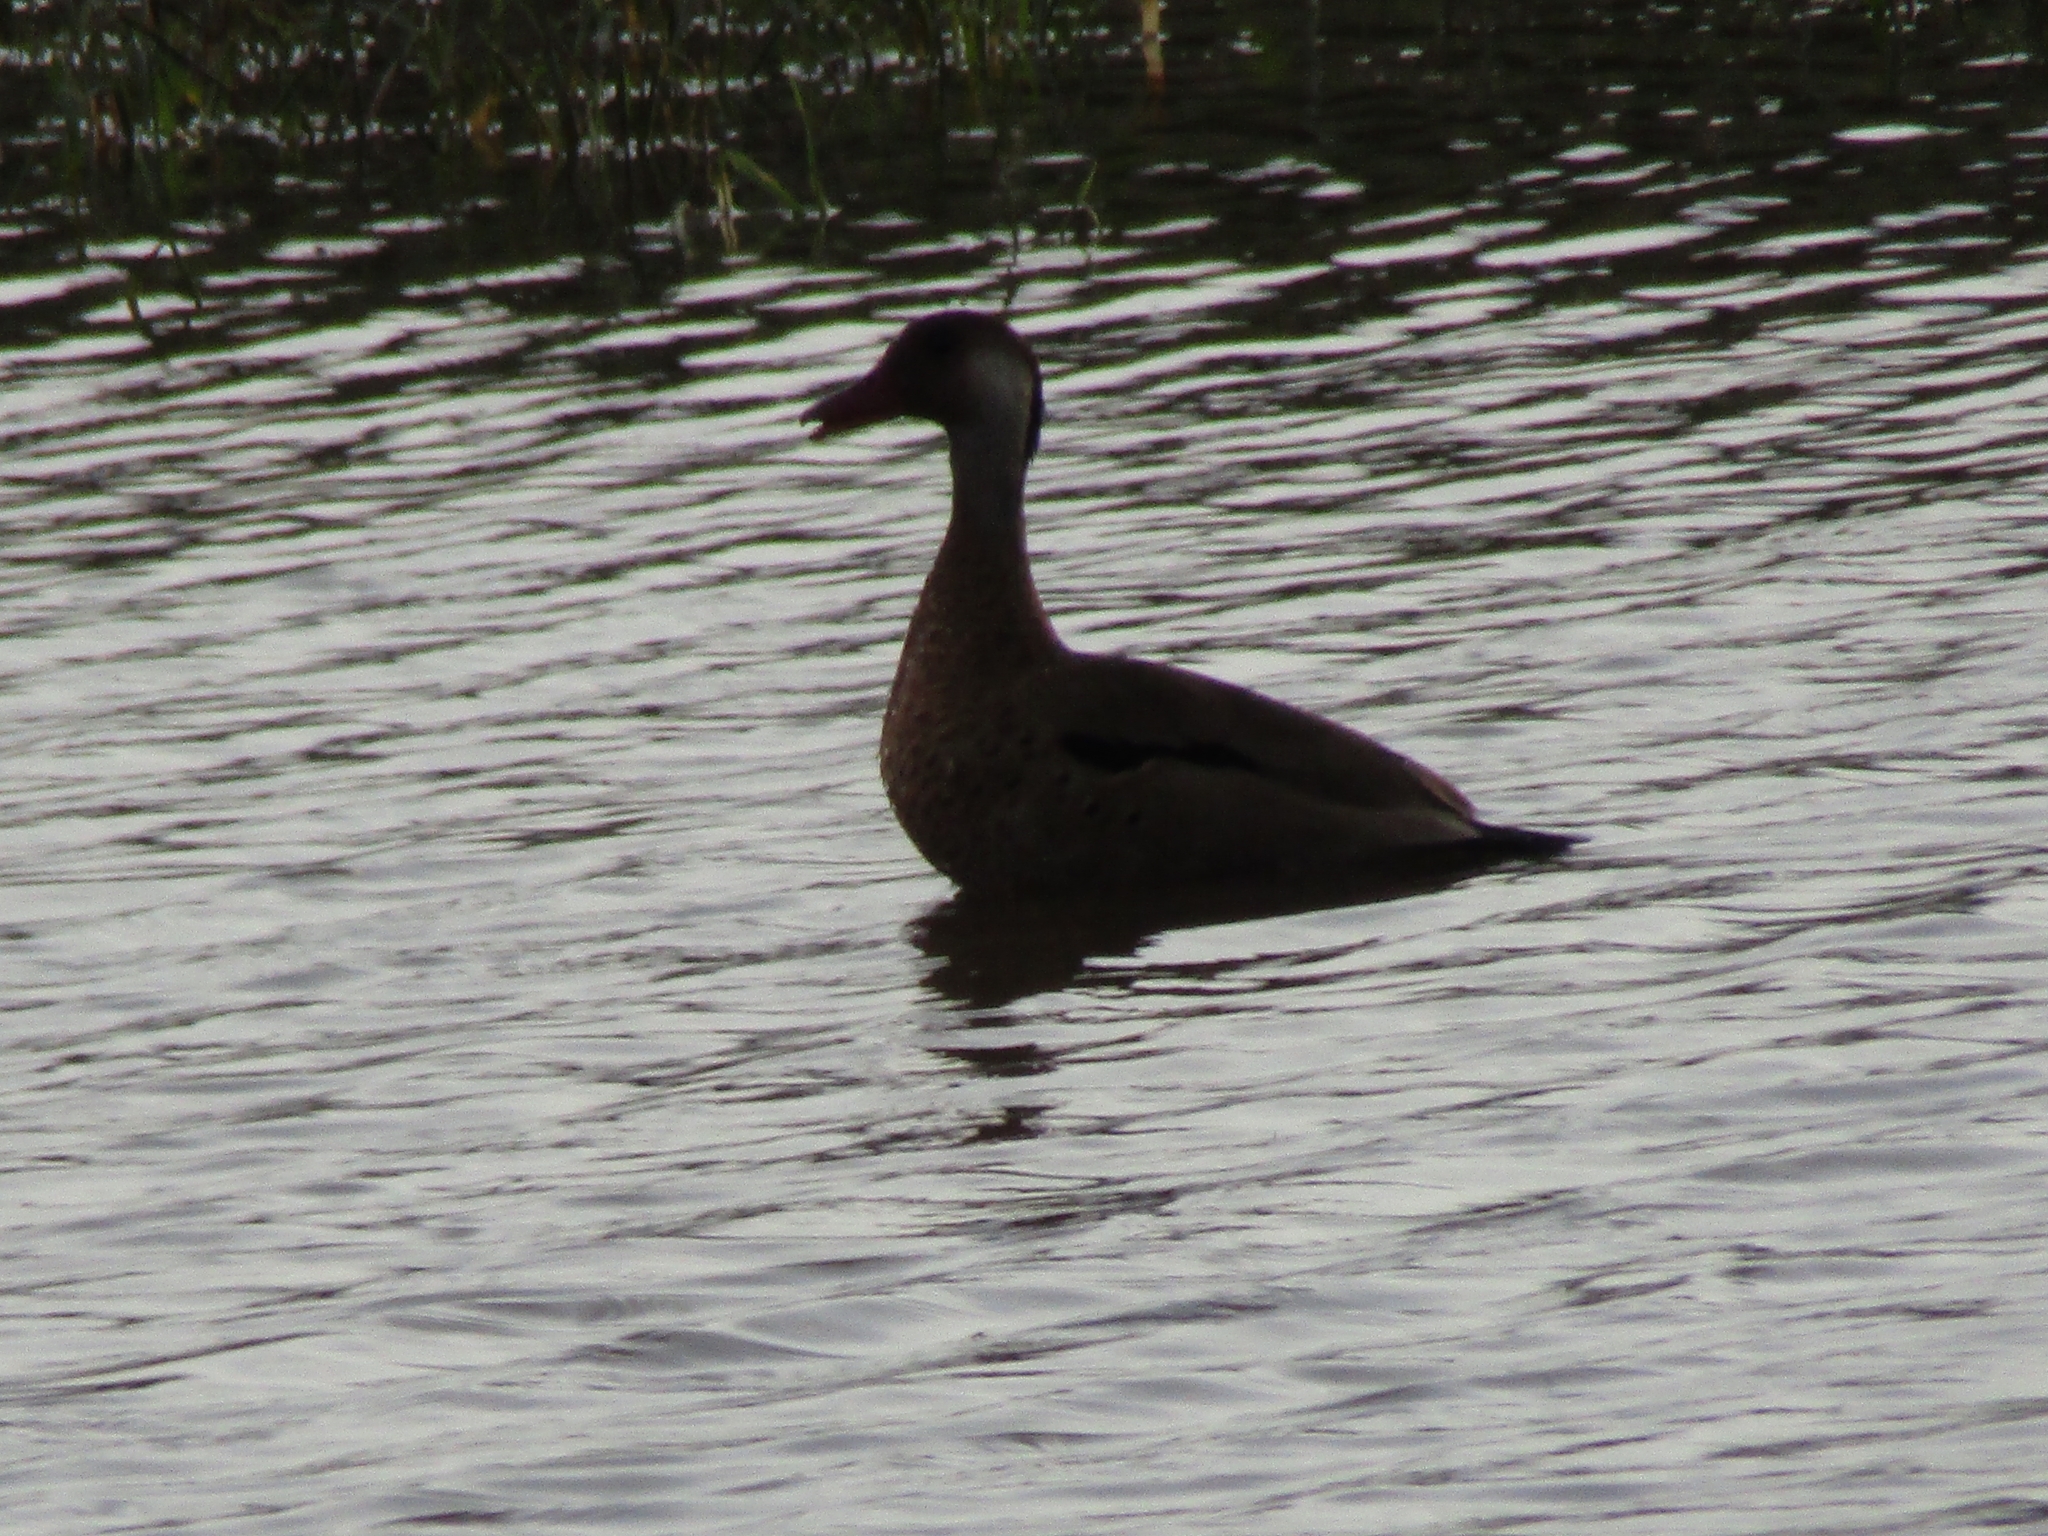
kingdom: Animalia
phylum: Chordata
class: Aves
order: Anseriformes
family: Anatidae
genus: Amazonetta
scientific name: Amazonetta brasiliensis
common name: Brazilian teal
